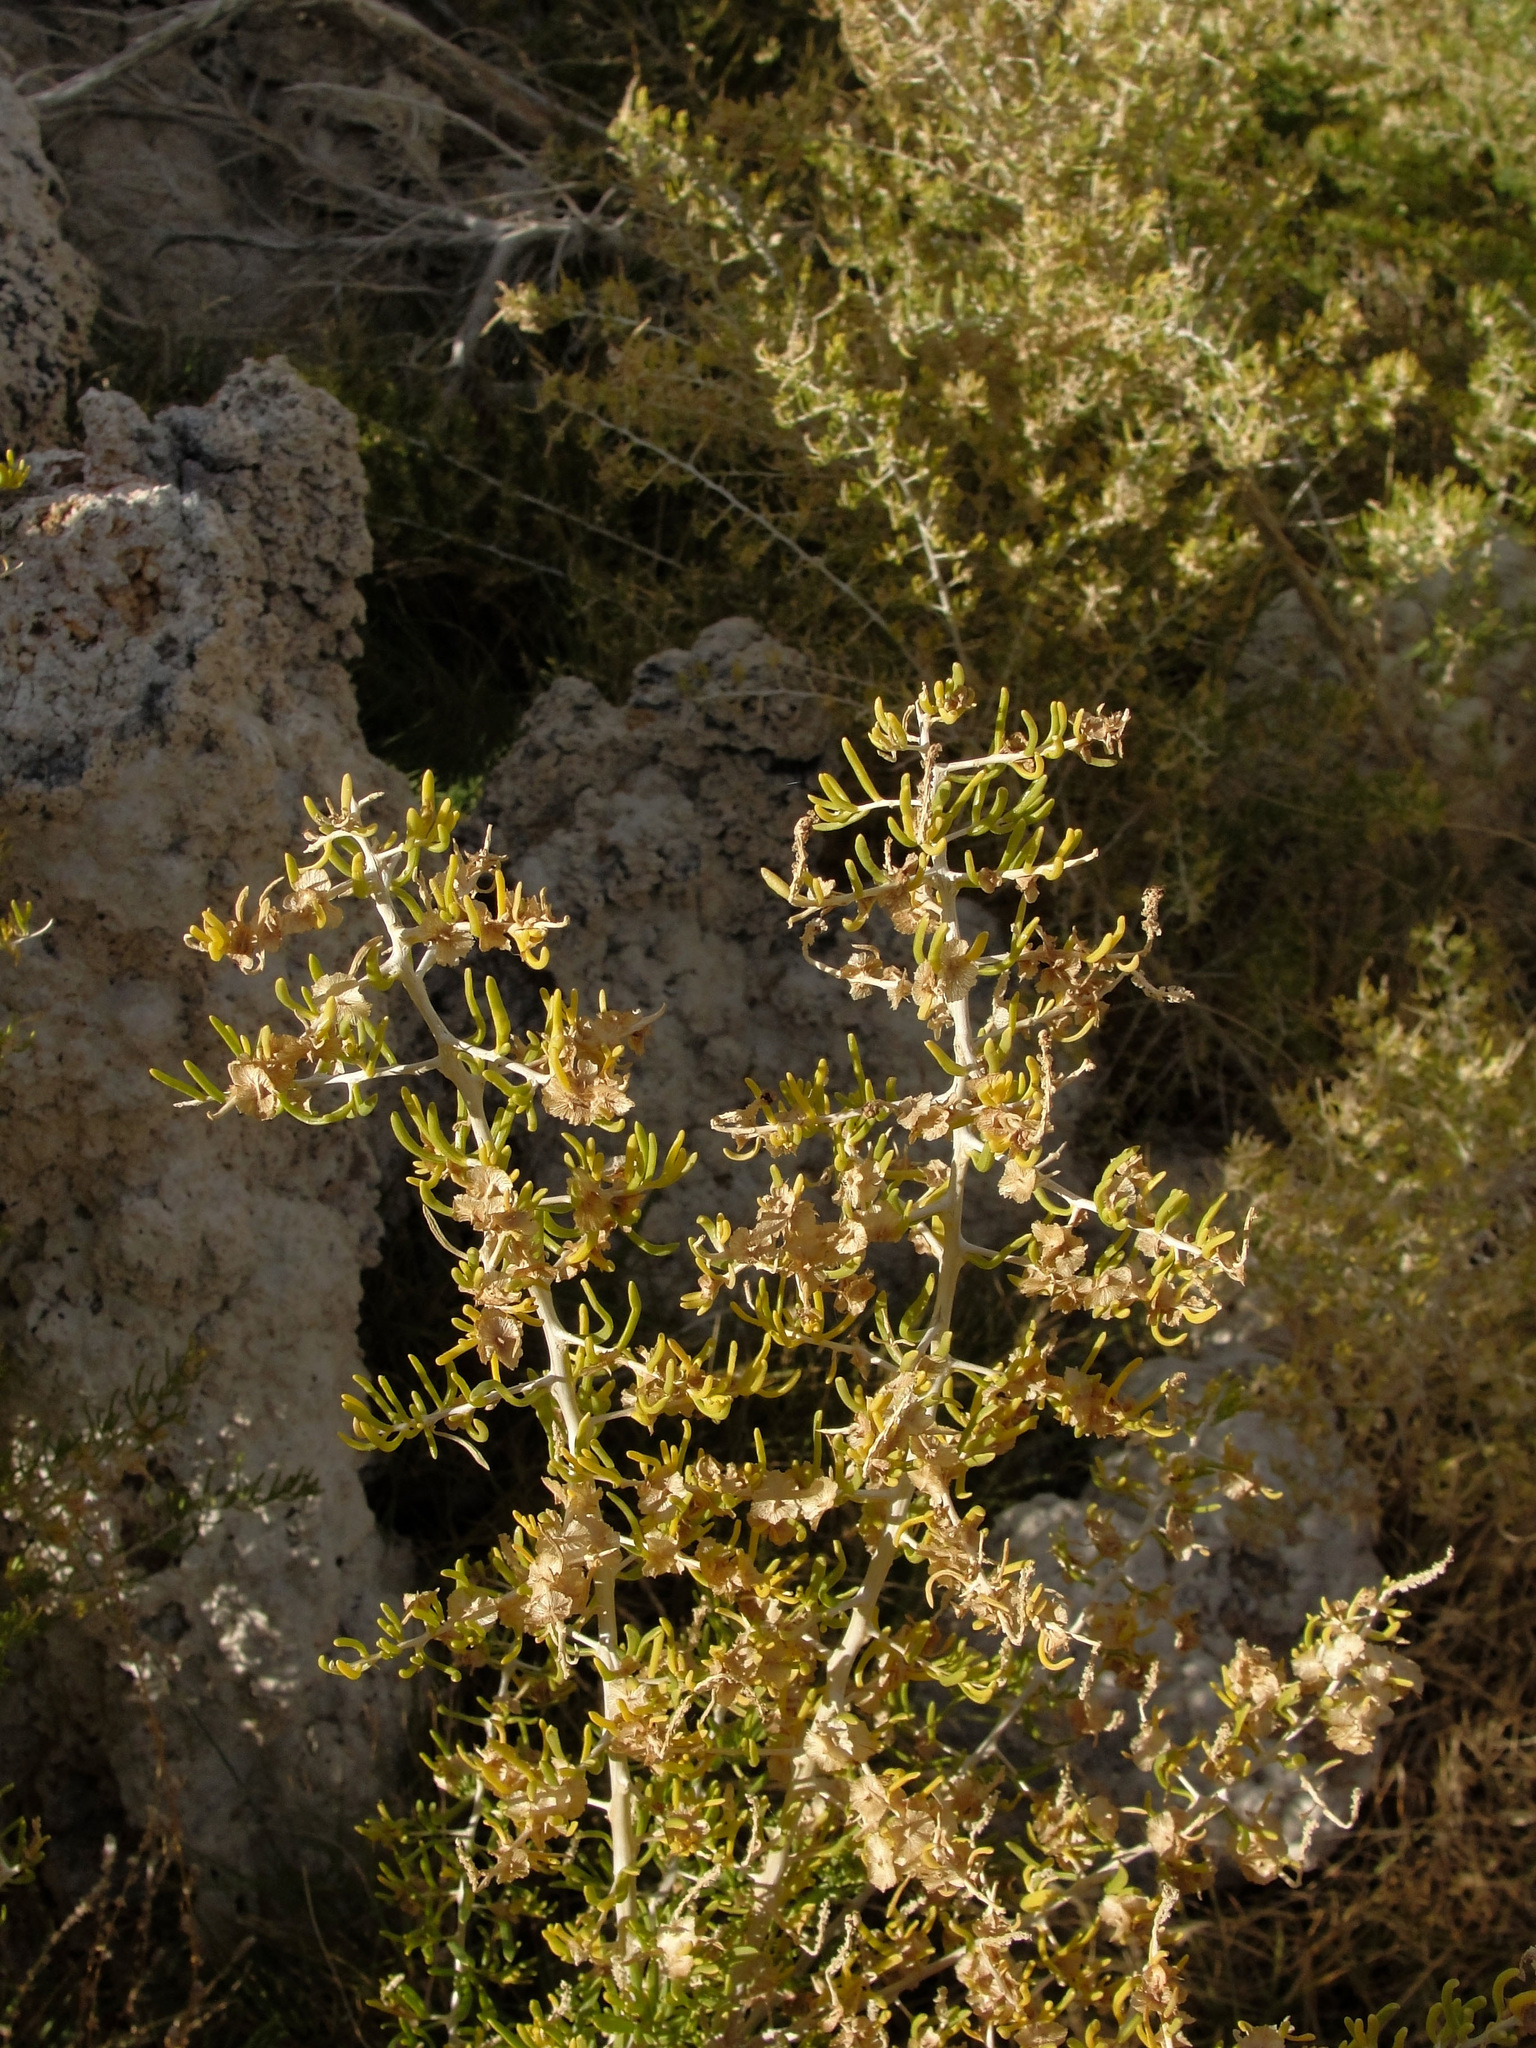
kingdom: Plantae
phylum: Tracheophyta
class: Magnoliopsida
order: Caryophyllales
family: Sarcobataceae
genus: Sarcobatus
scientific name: Sarcobatus vermiculatus
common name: Greasewood
